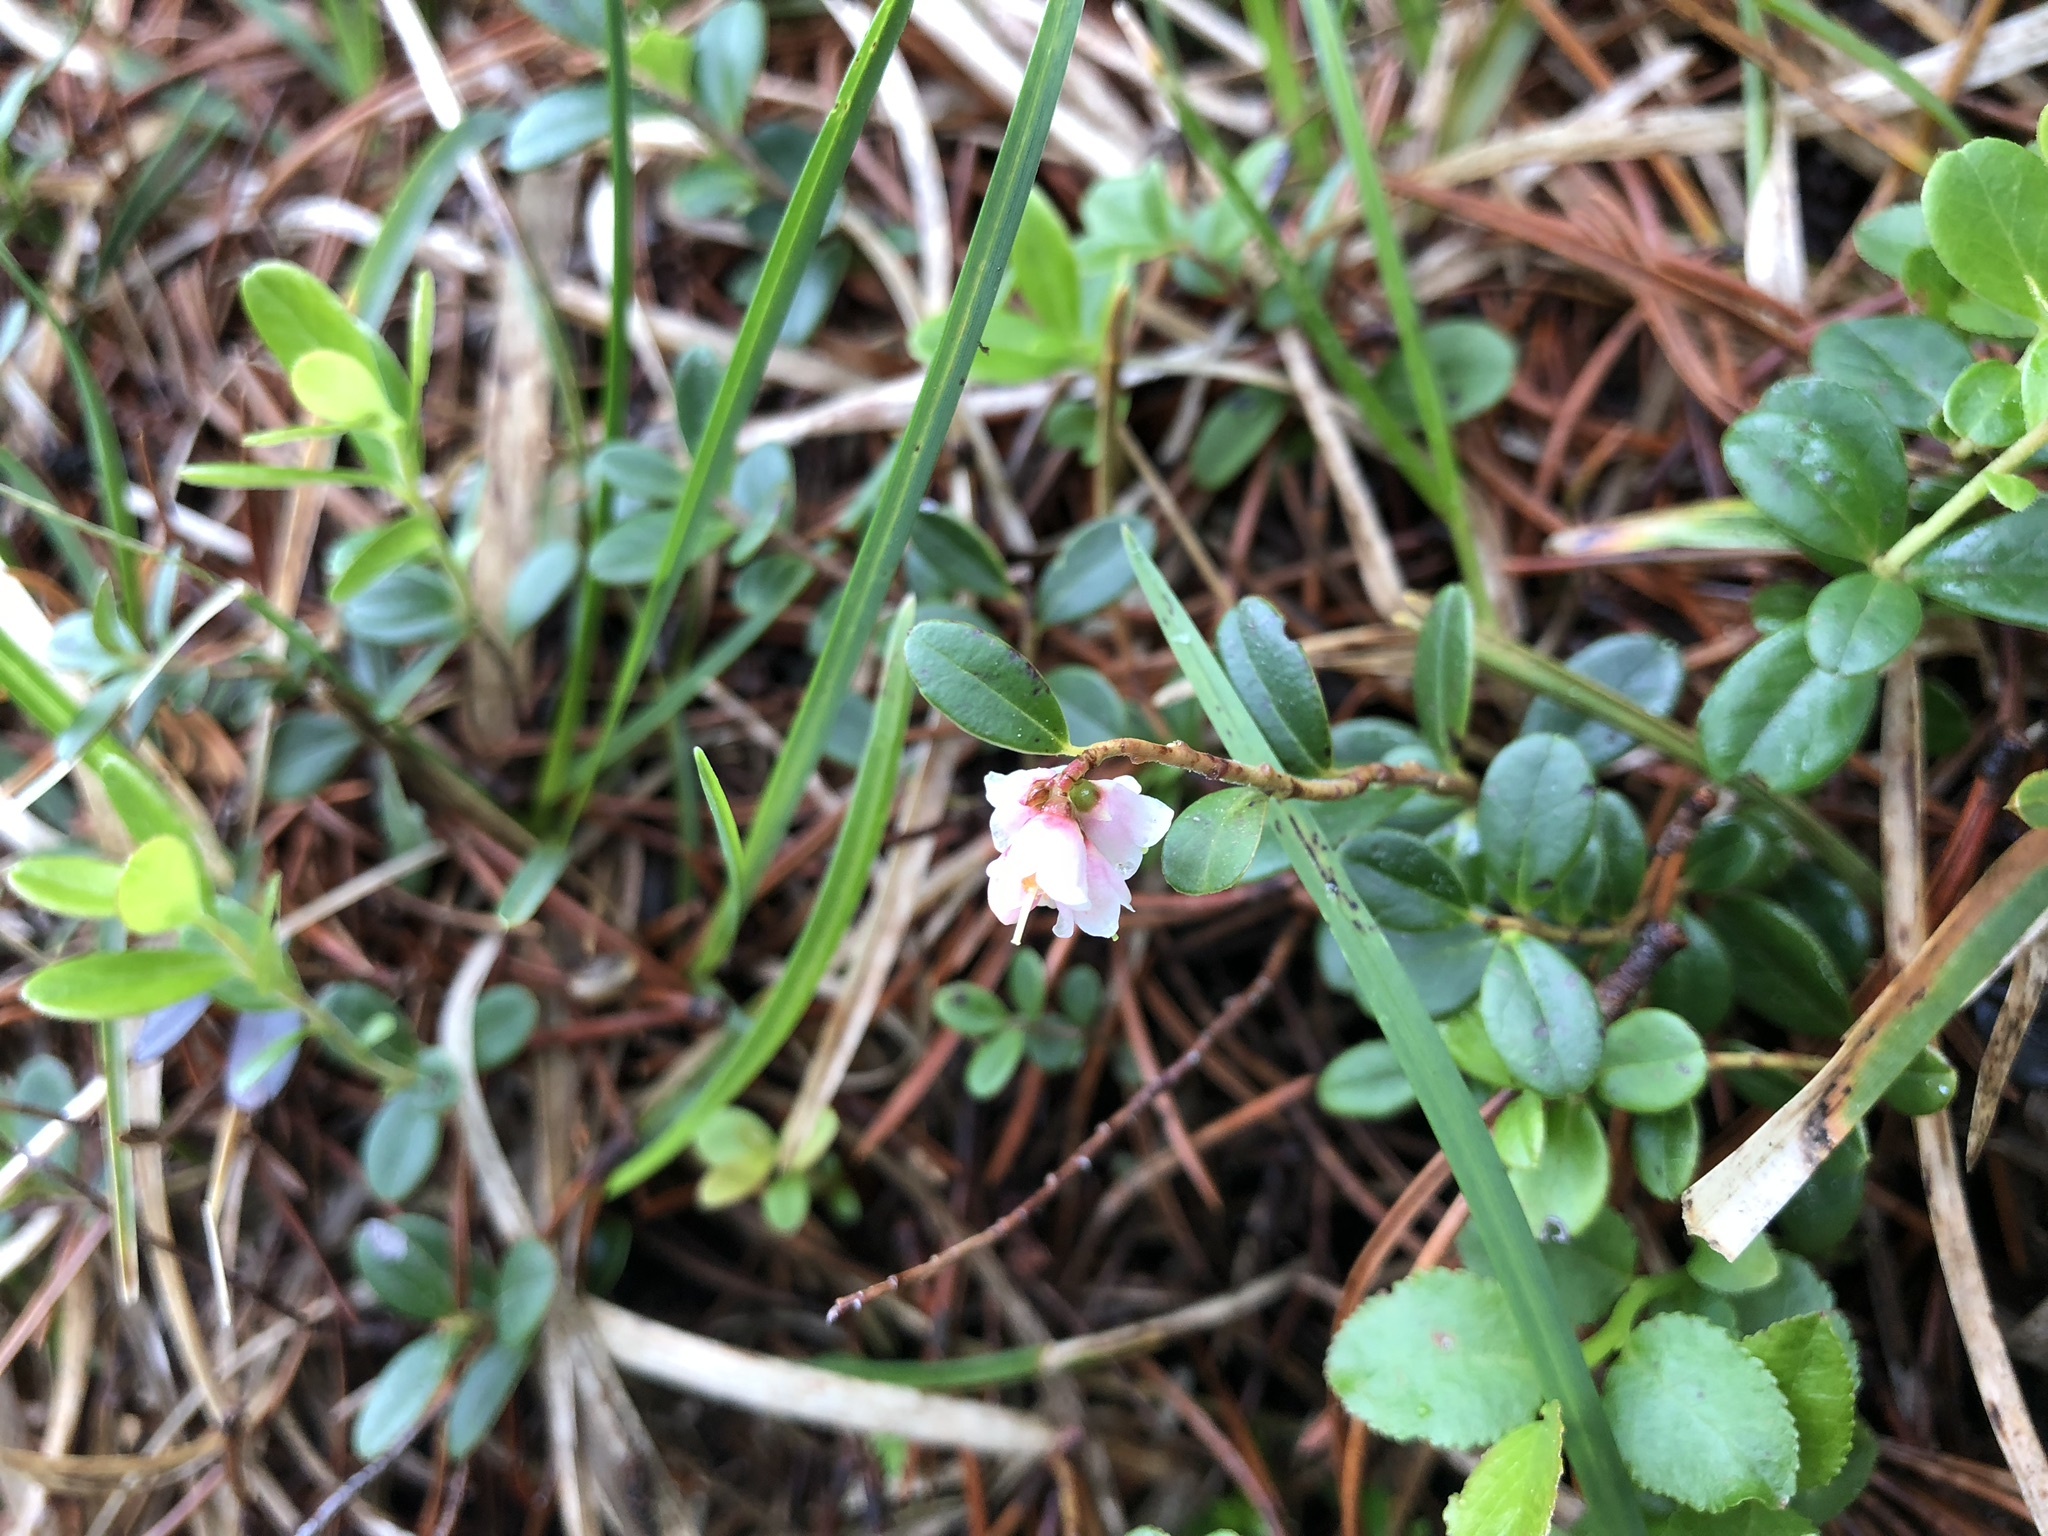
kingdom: Plantae
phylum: Tracheophyta
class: Magnoliopsida
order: Ericales
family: Ericaceae
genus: Vaccinium
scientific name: Vaccinium vitis-idaea
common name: Cowberry
